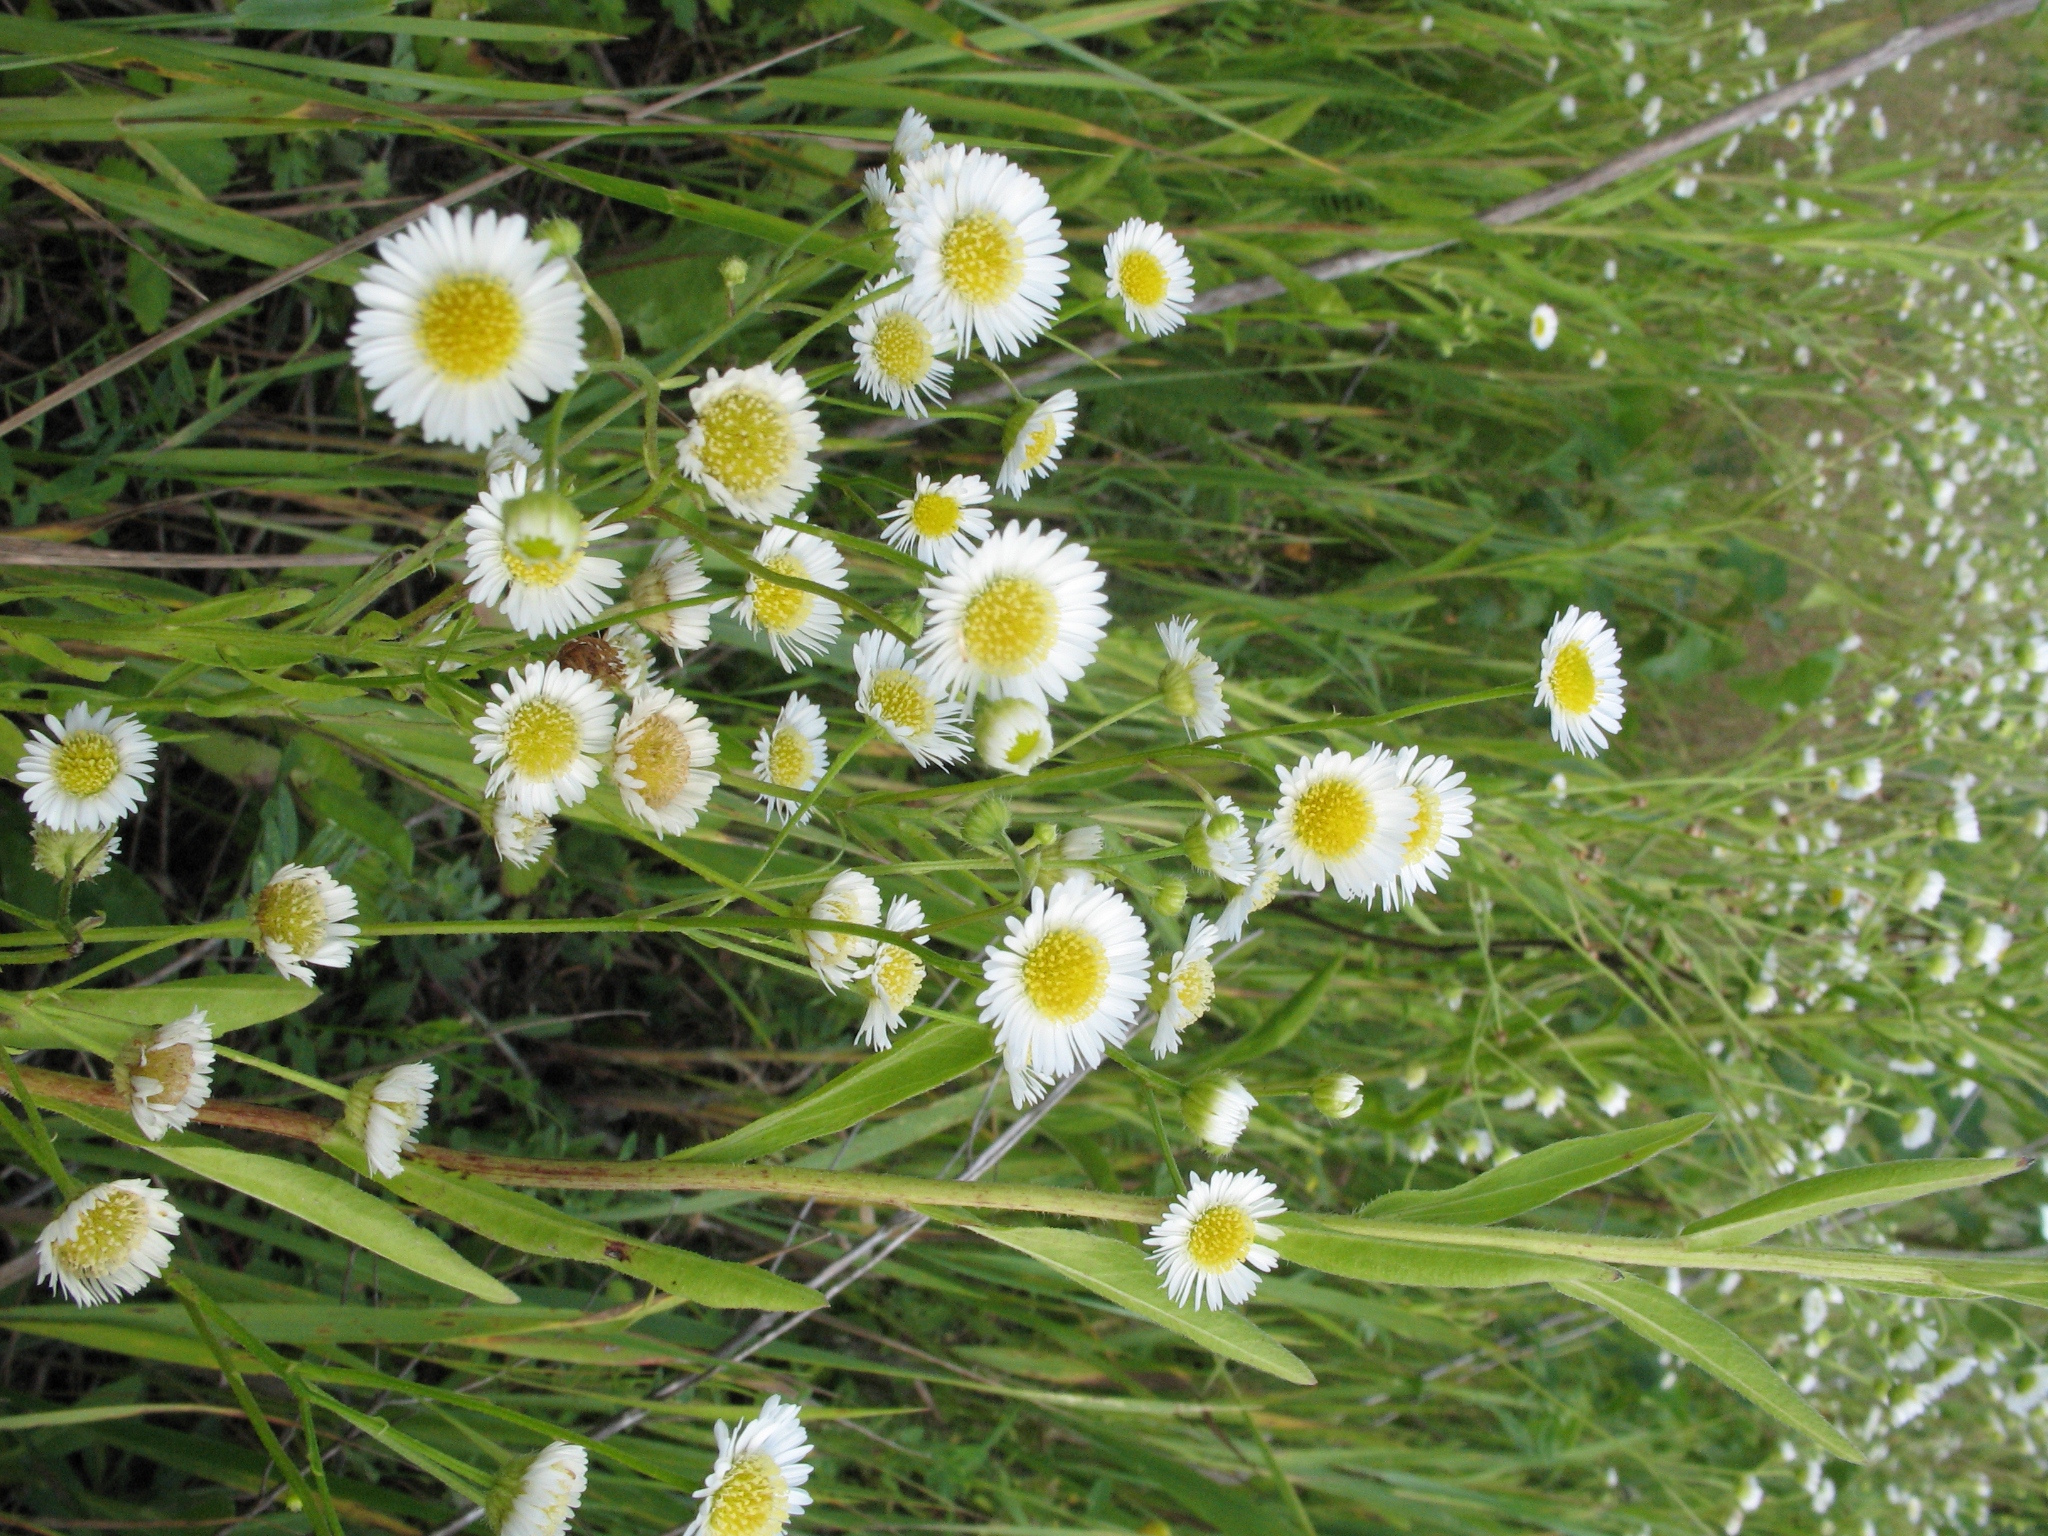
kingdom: Plantae
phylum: Tracheophyta
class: Magnoliopsida
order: Asterales
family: Asteraceae
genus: Erigeron
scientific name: Erigeron annuus
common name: Tall fleabane
